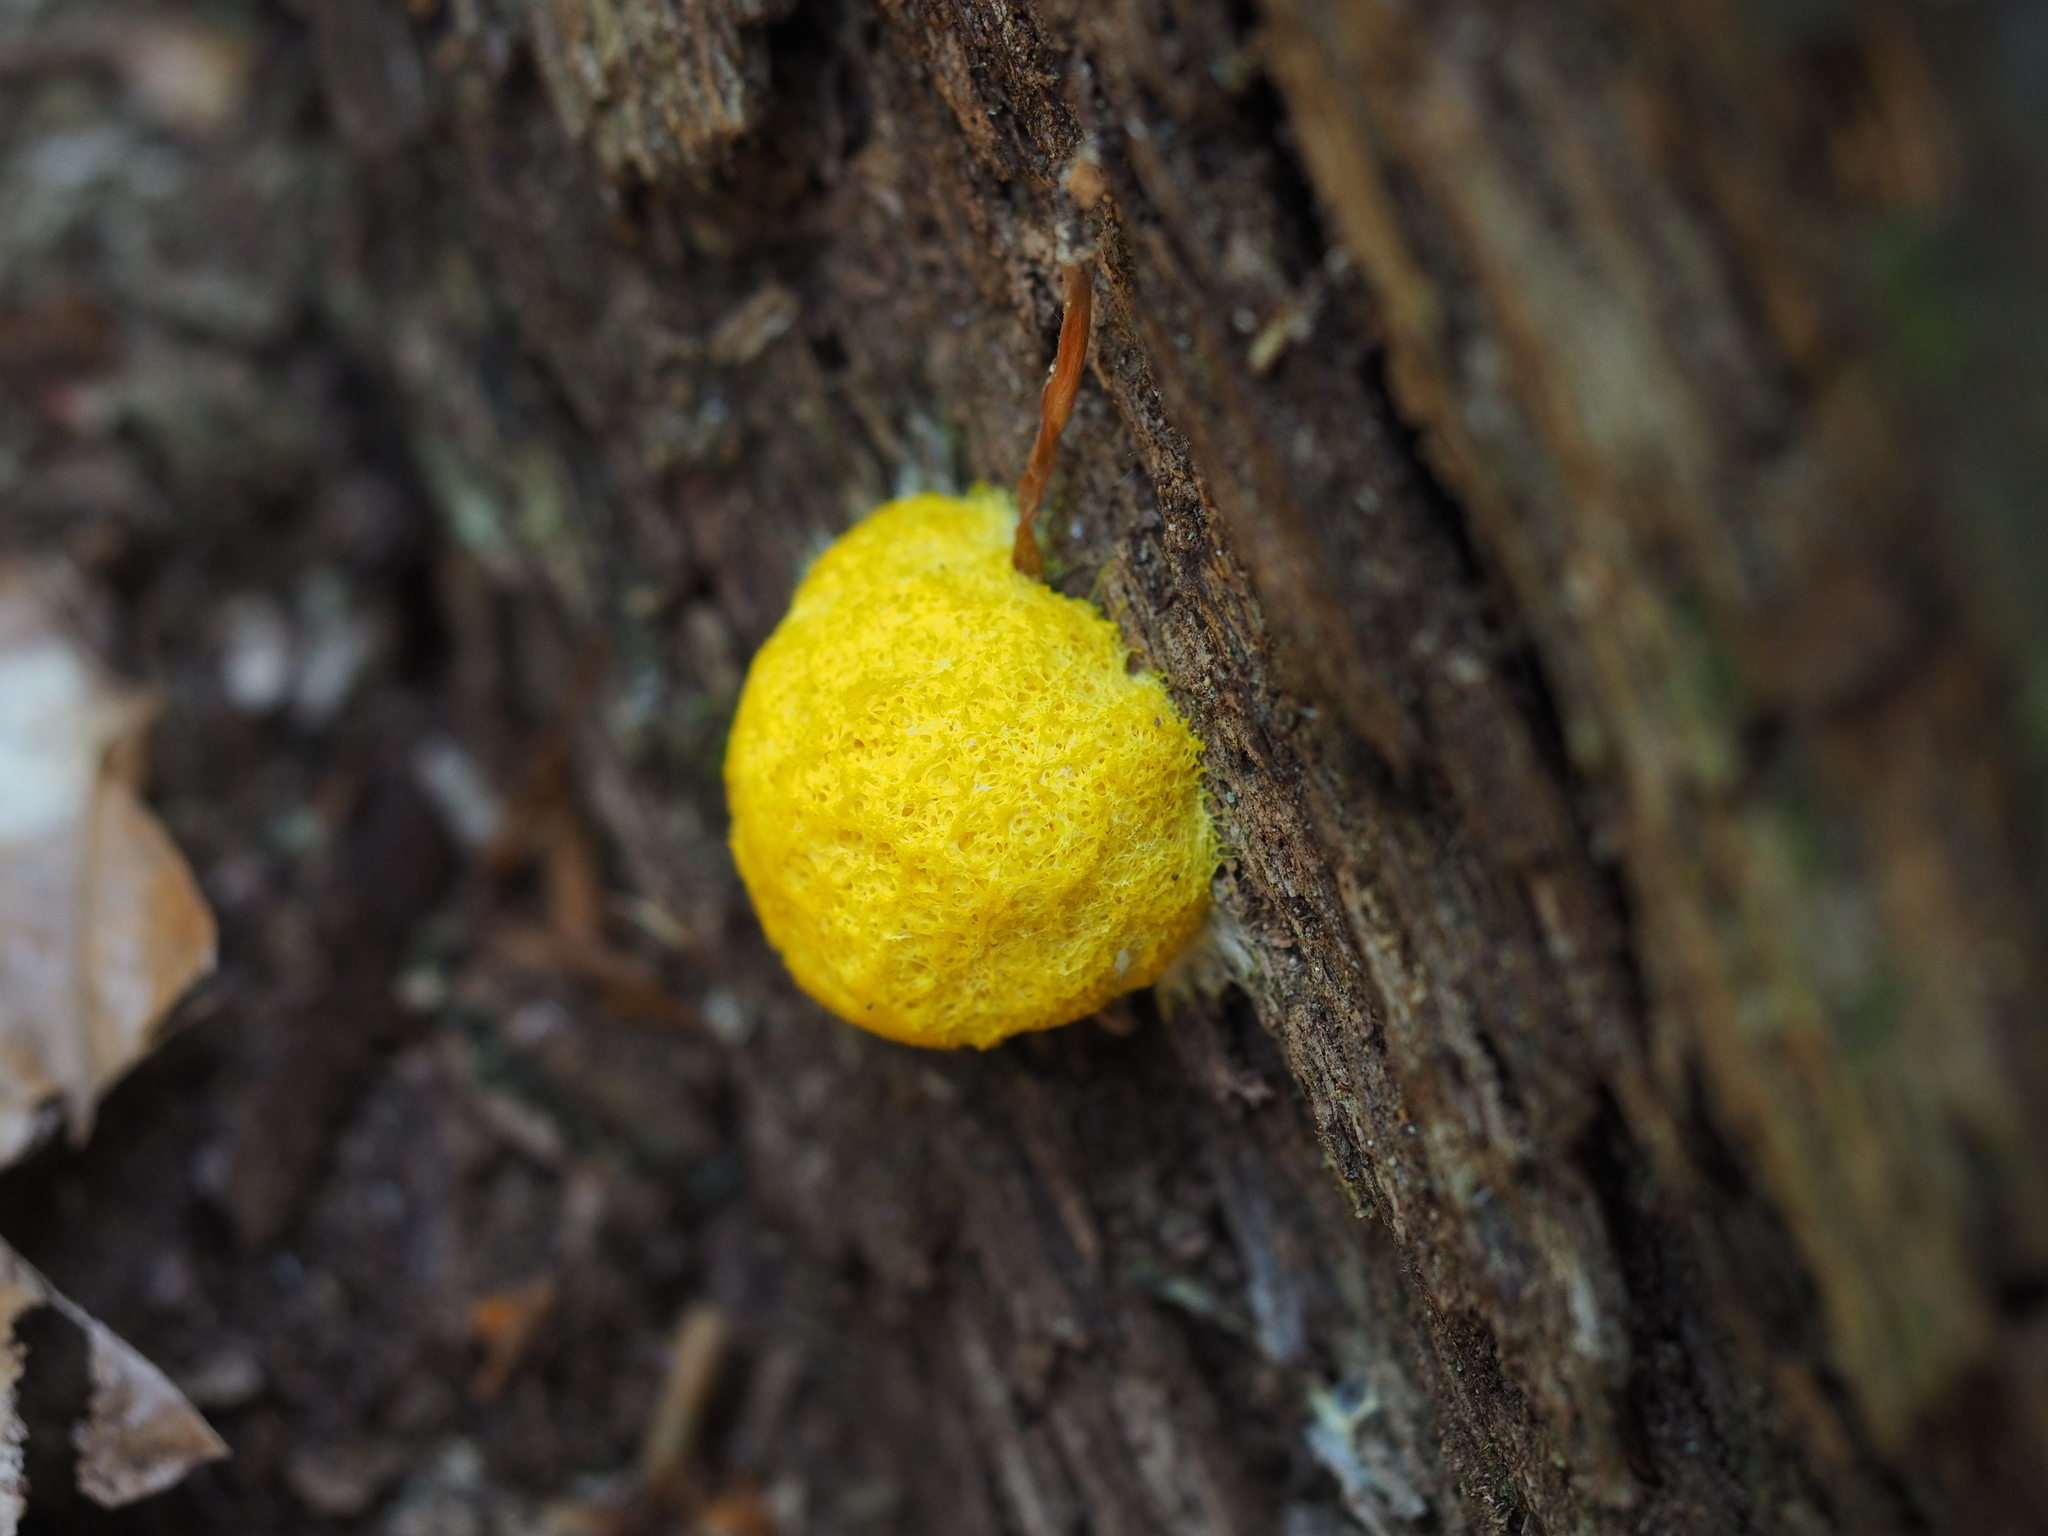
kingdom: Protozoa
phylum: Mycetozoa
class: Myxomycetes
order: Physarales
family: Physaraceae
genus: Fuligo
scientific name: Fuligo septica
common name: Dog vomit slime mold
